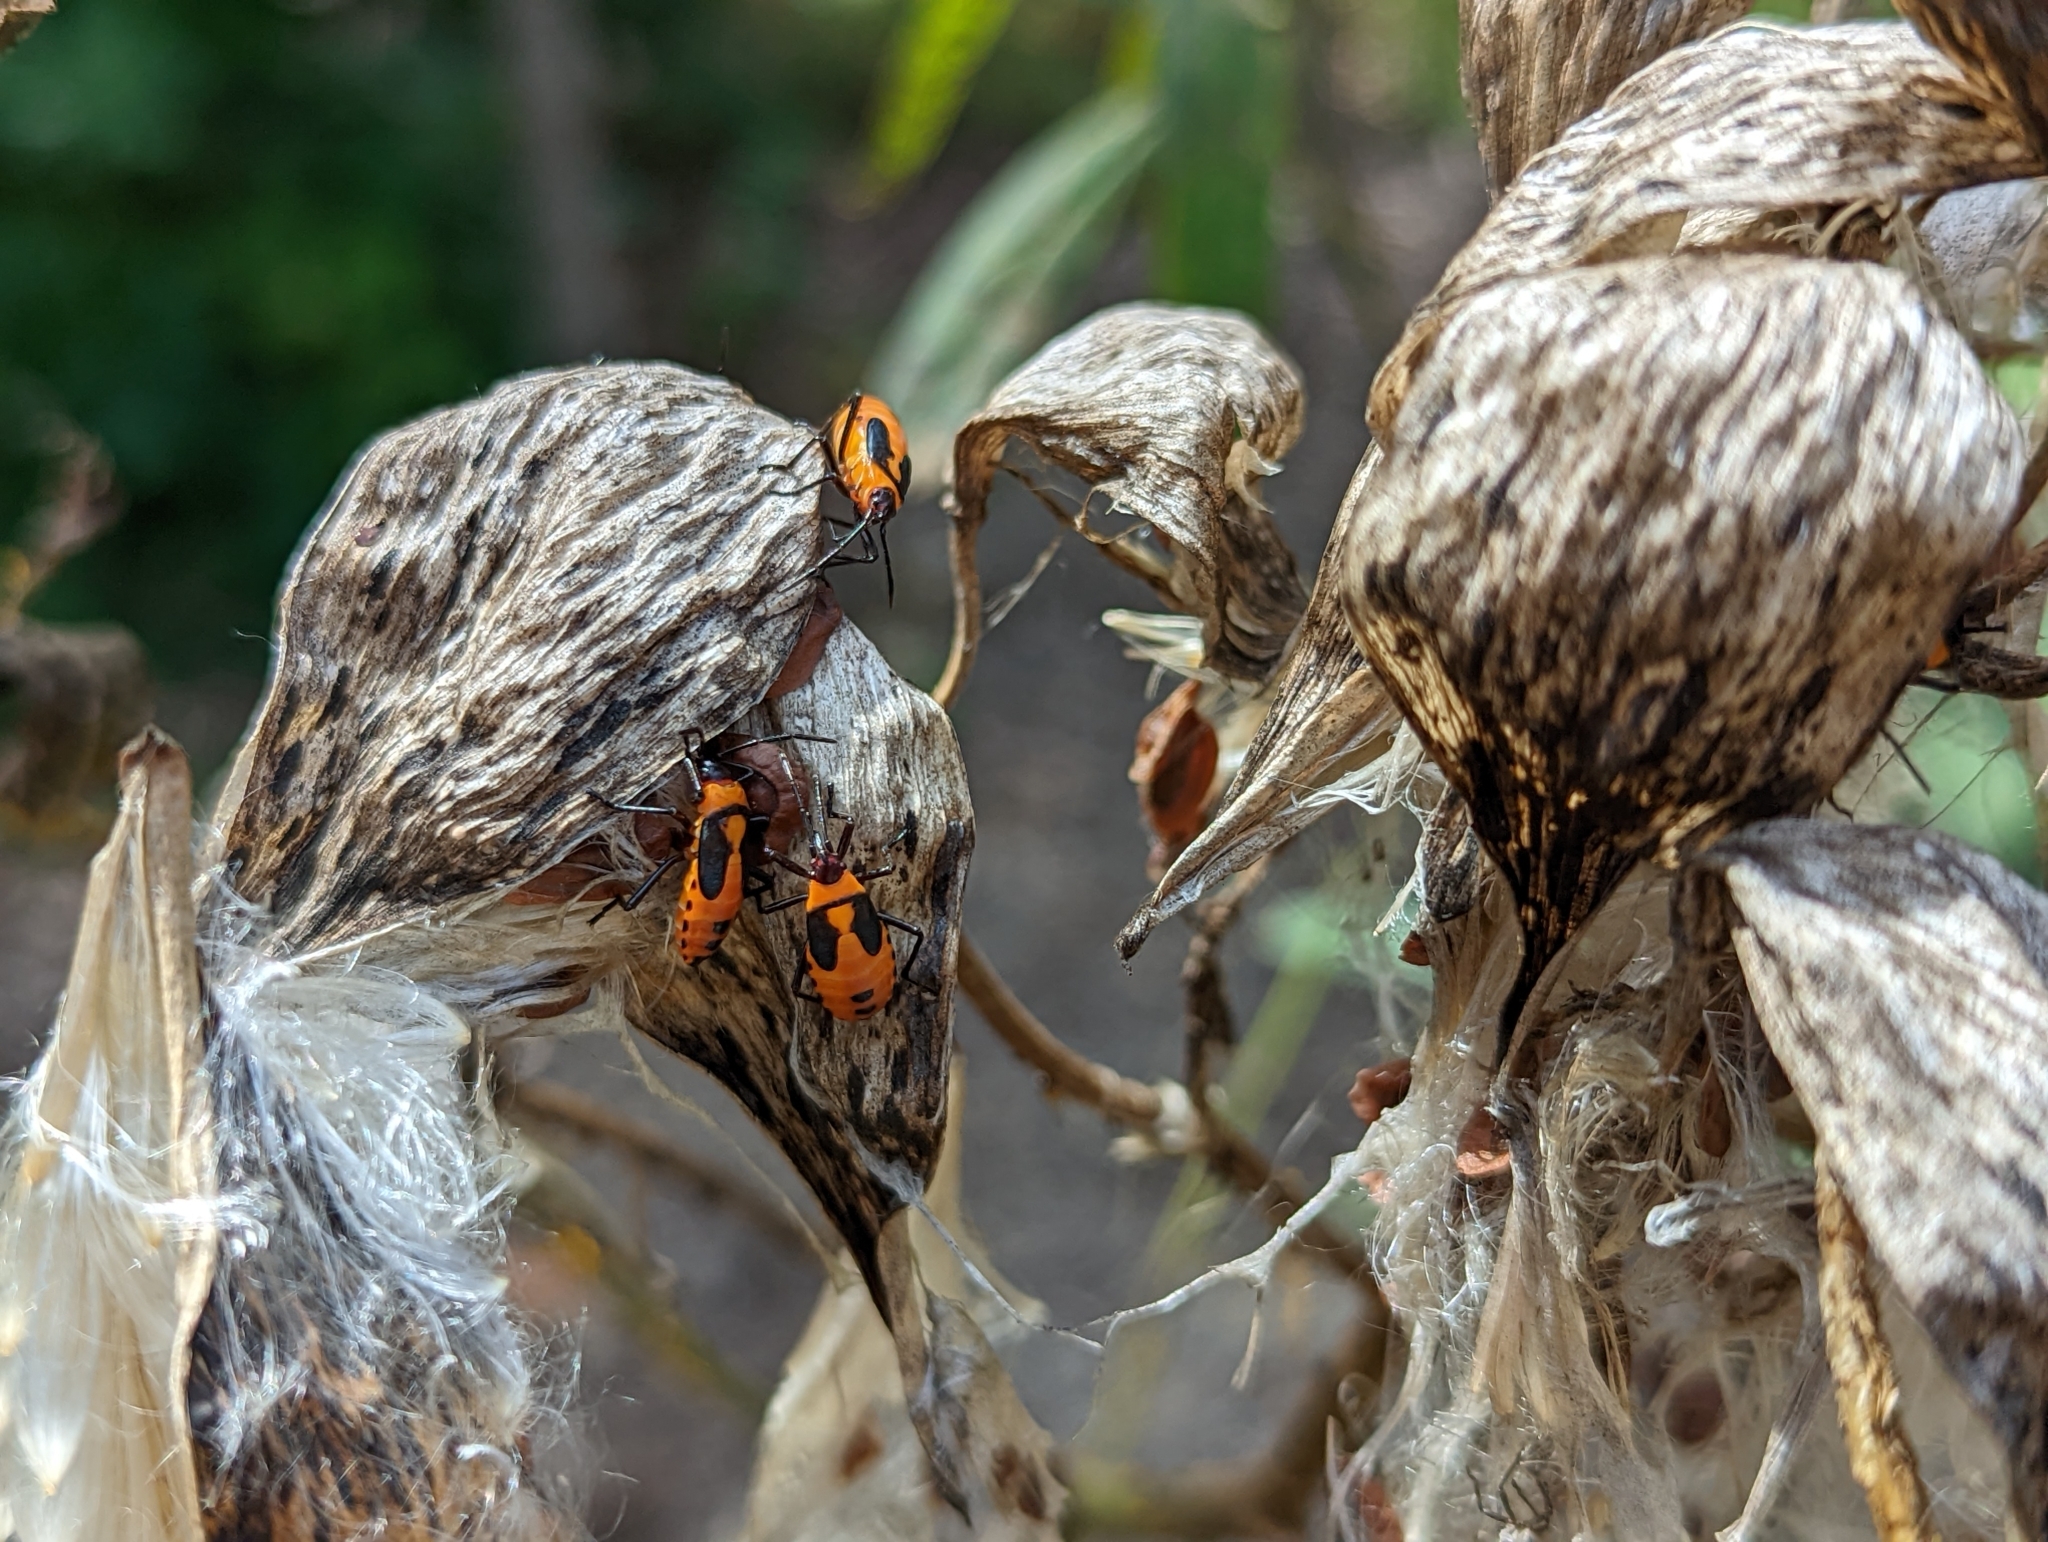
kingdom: Animalia
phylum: Arthropoda
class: Insecta
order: Hemiptera
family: Lygaeidae
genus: Oncopeltus
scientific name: Oncopeltus fasciatus
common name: Large milkweed bug
